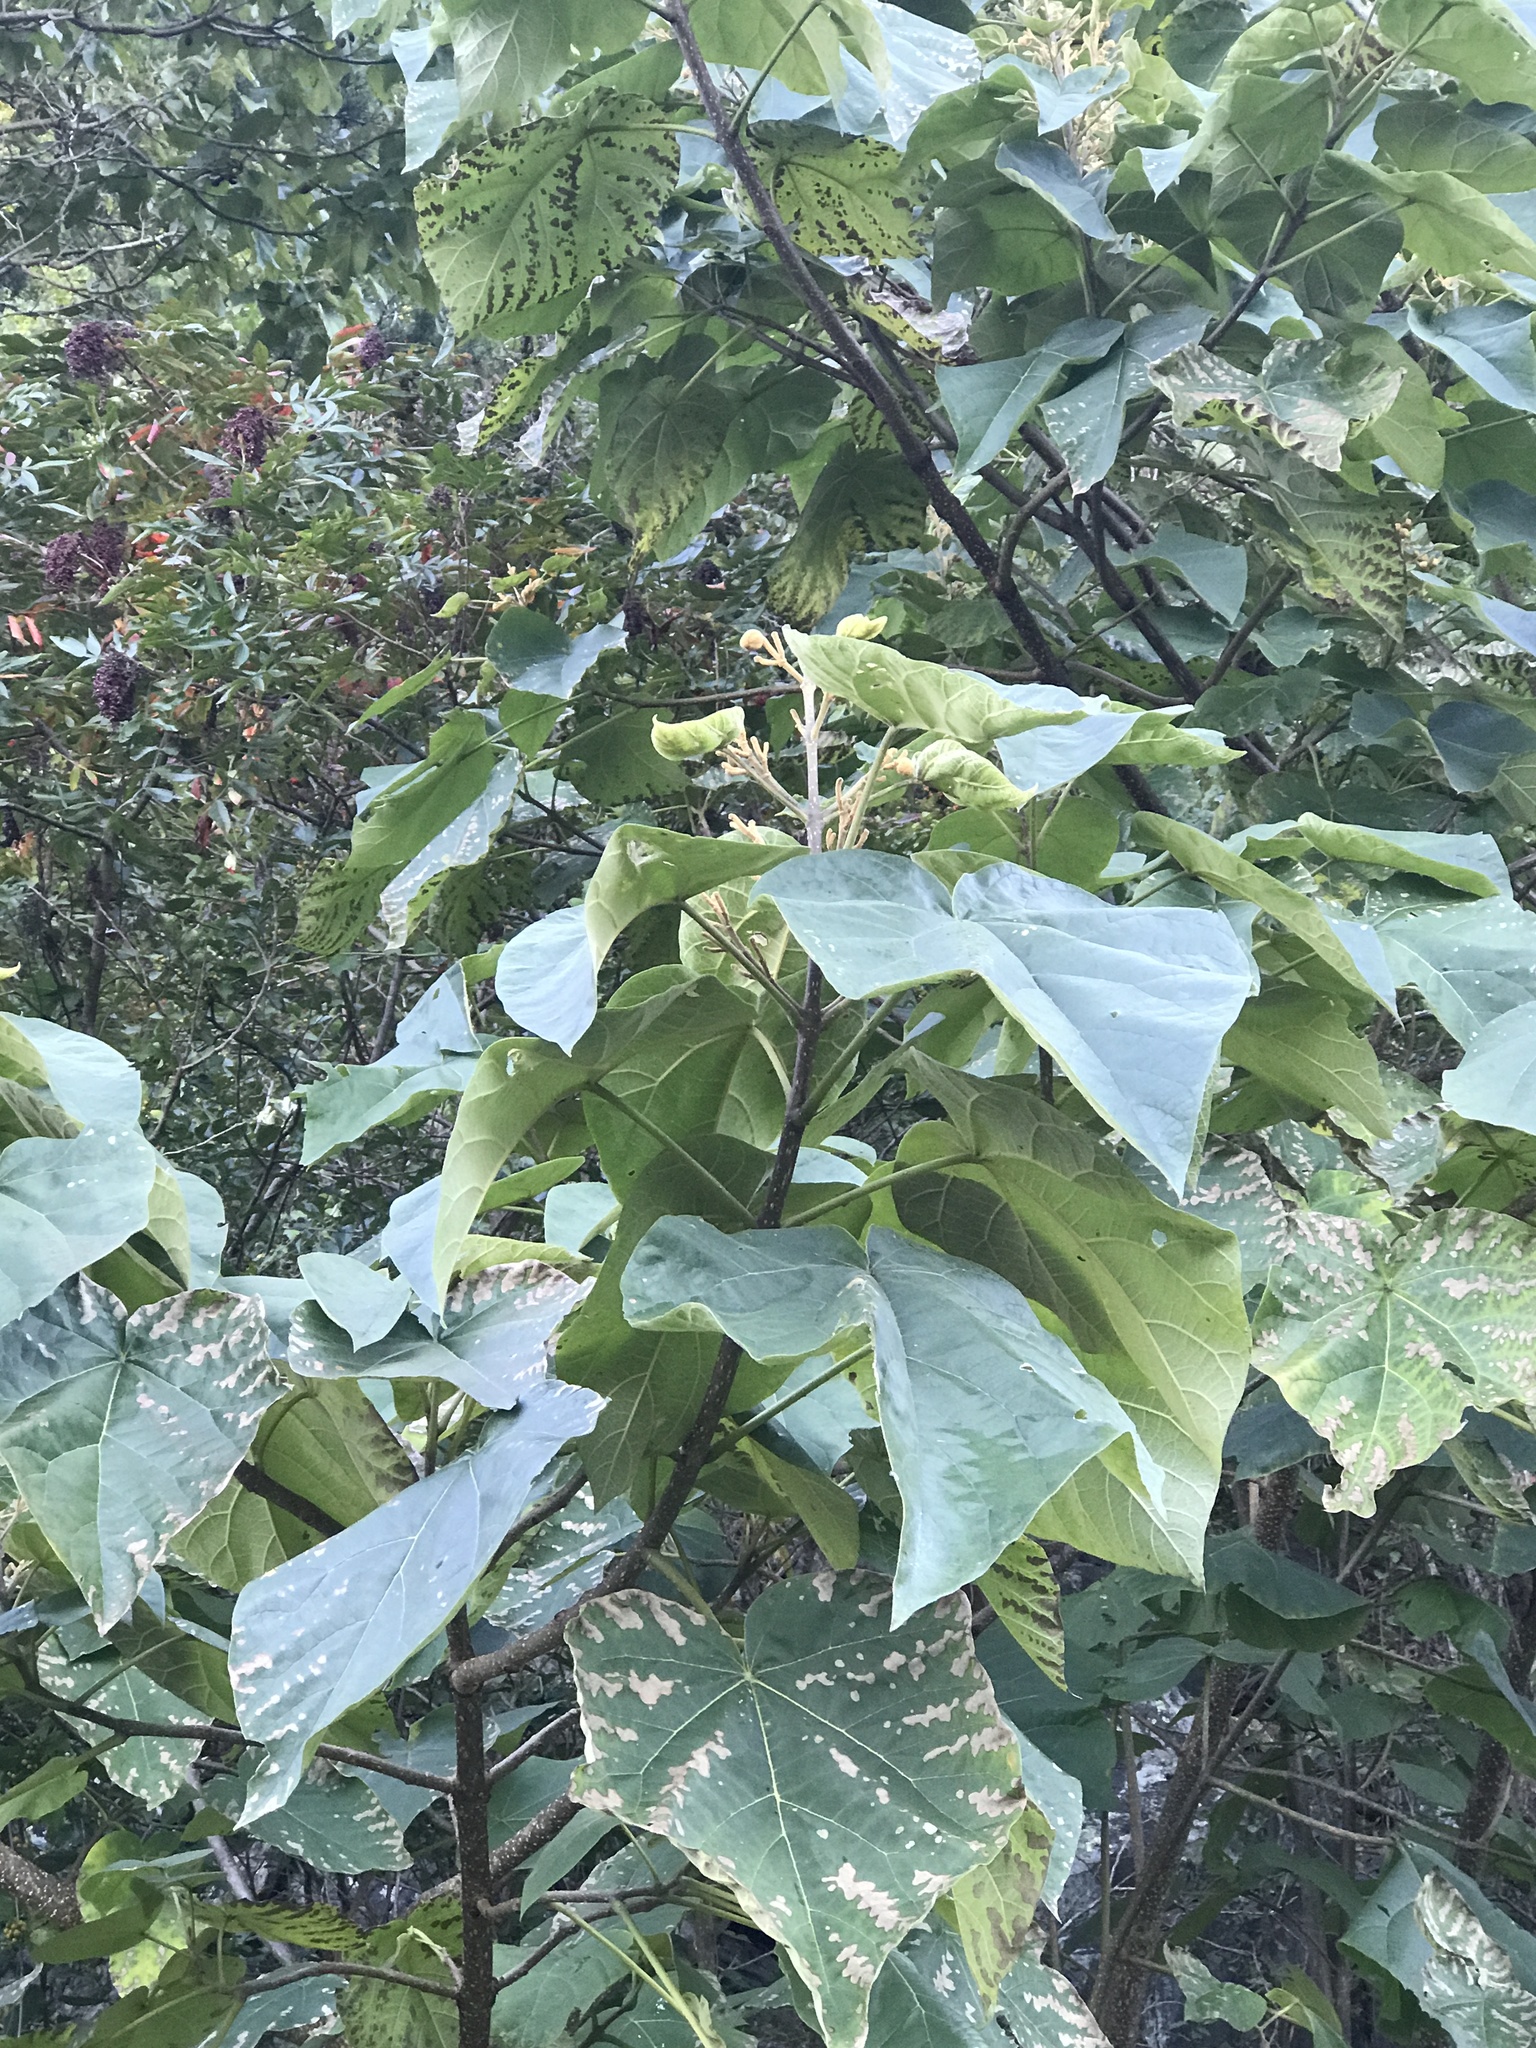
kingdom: Plantae
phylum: Tracheophyta
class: Magnoliopsida
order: Lamiales
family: Paulowniaceae
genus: Paulownia
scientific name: Paulownia tomentosa
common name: Foxglove-tree
